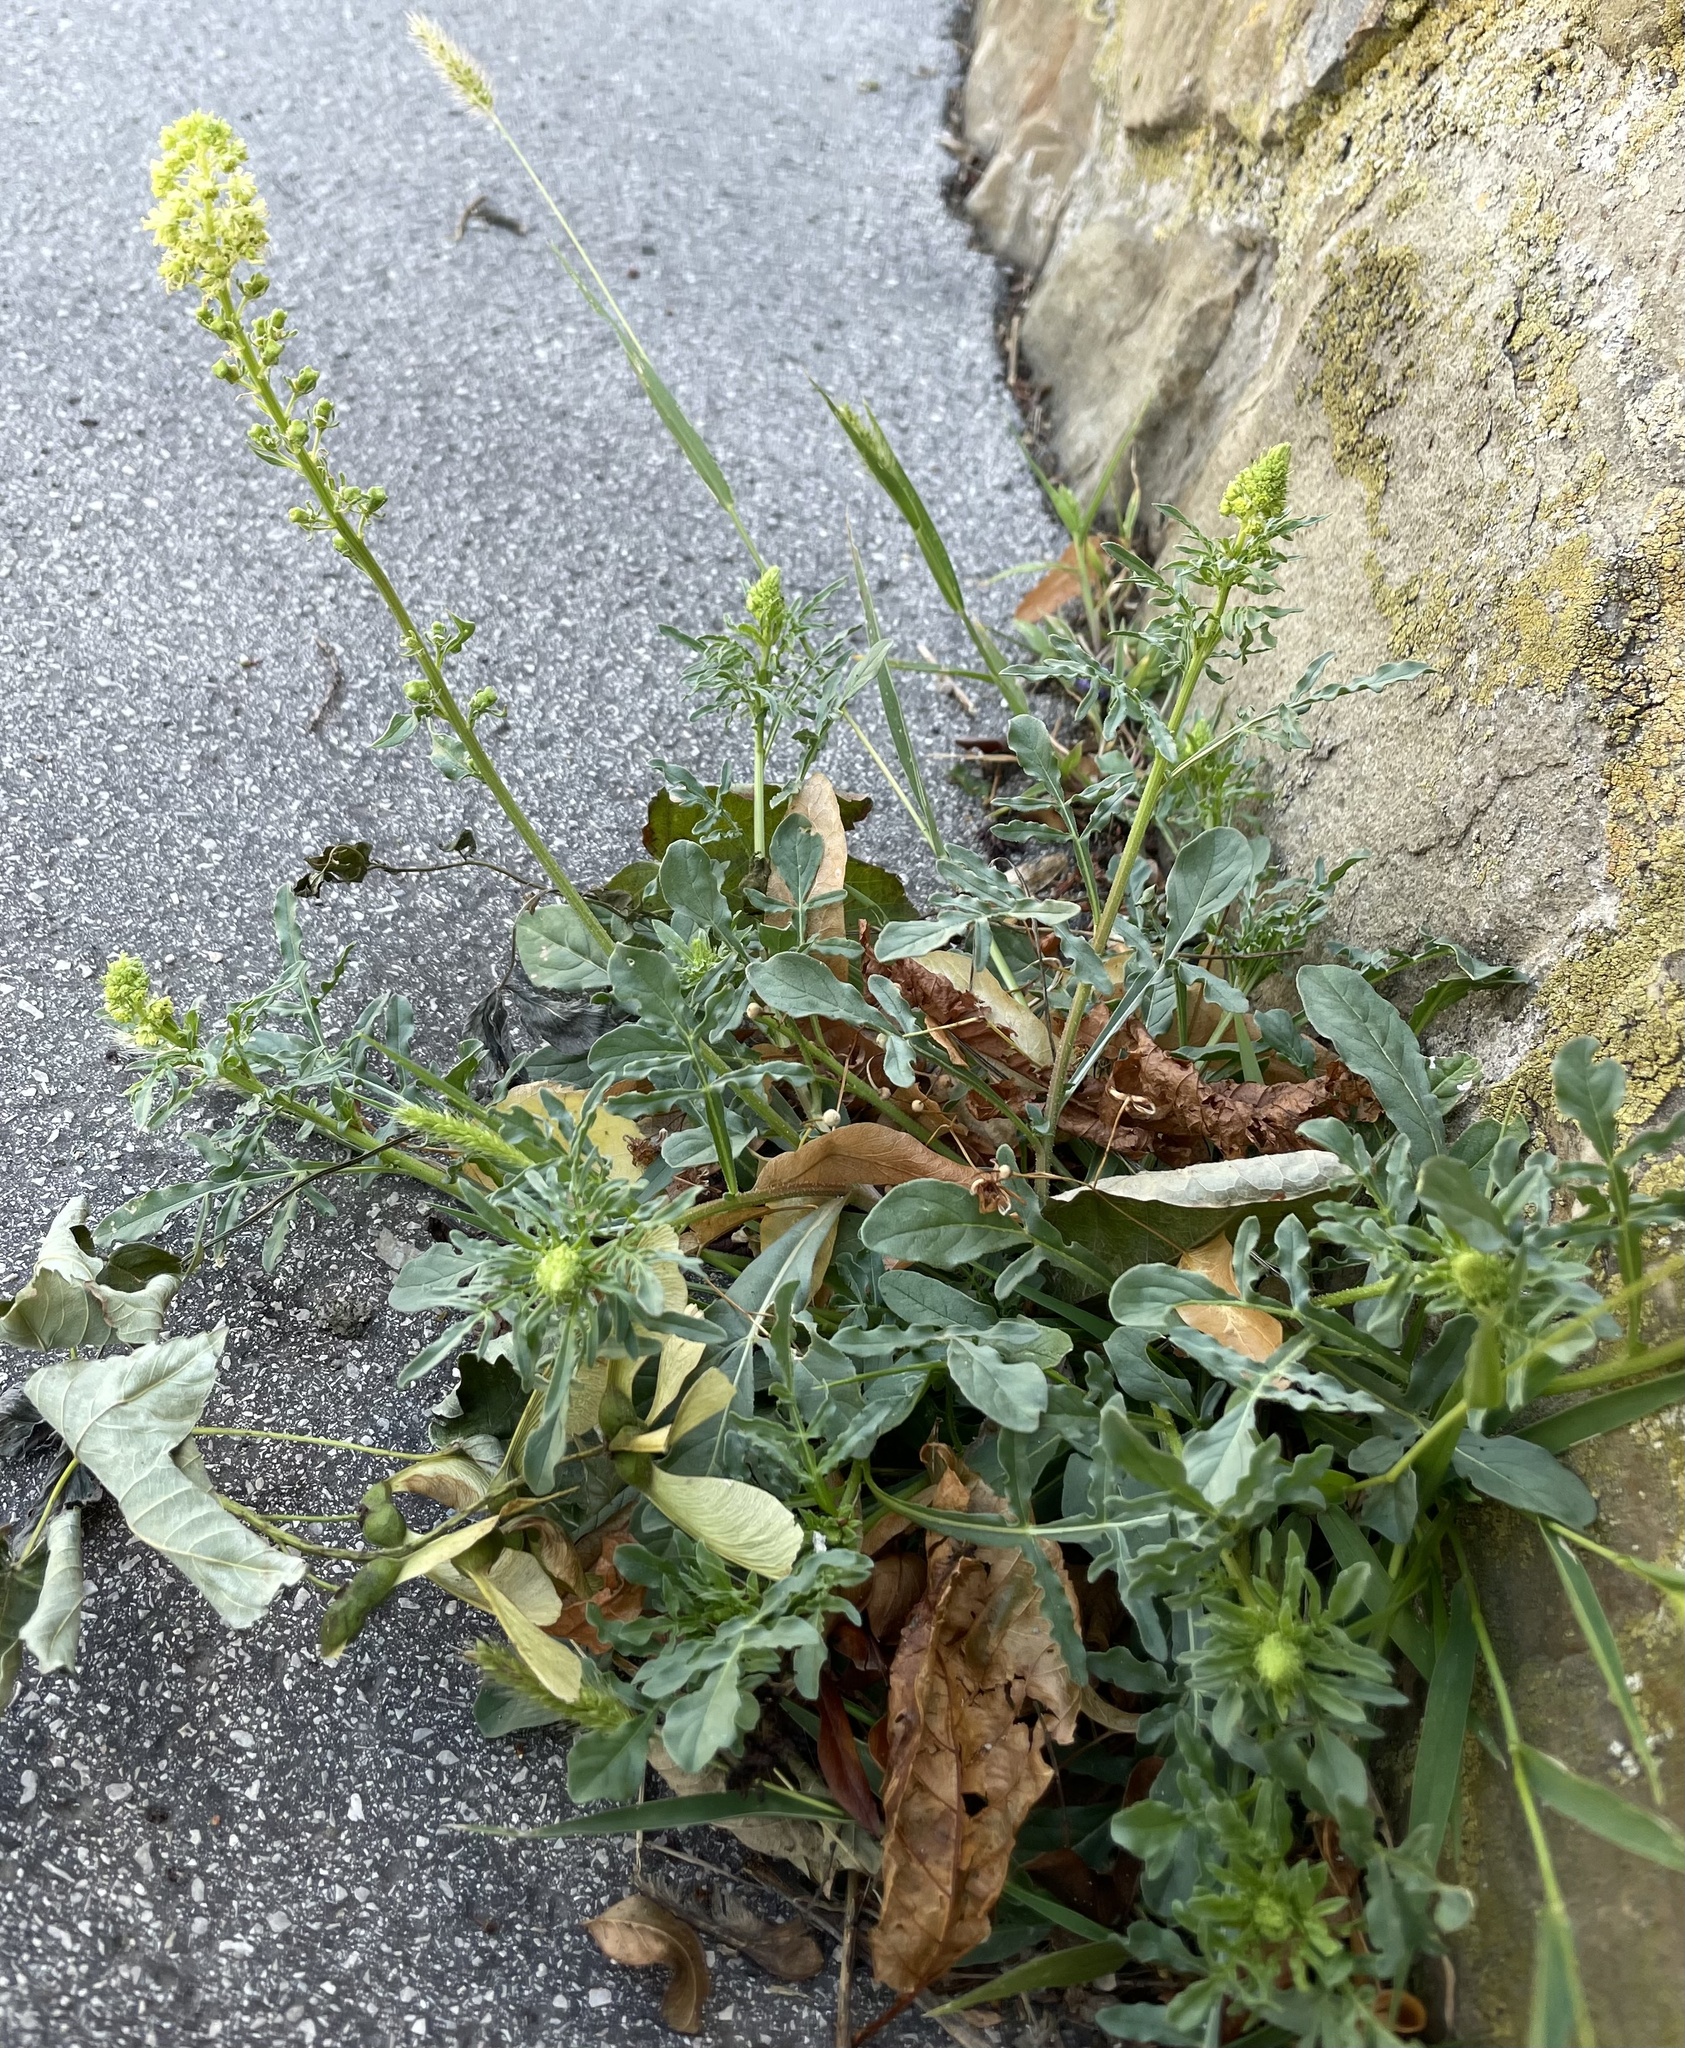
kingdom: Plantae
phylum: Tracheophyta
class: Magnoliopsida
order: Brassicales
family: Resedaceae
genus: Reseda
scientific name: Reseda lutea
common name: Wild mignonette
